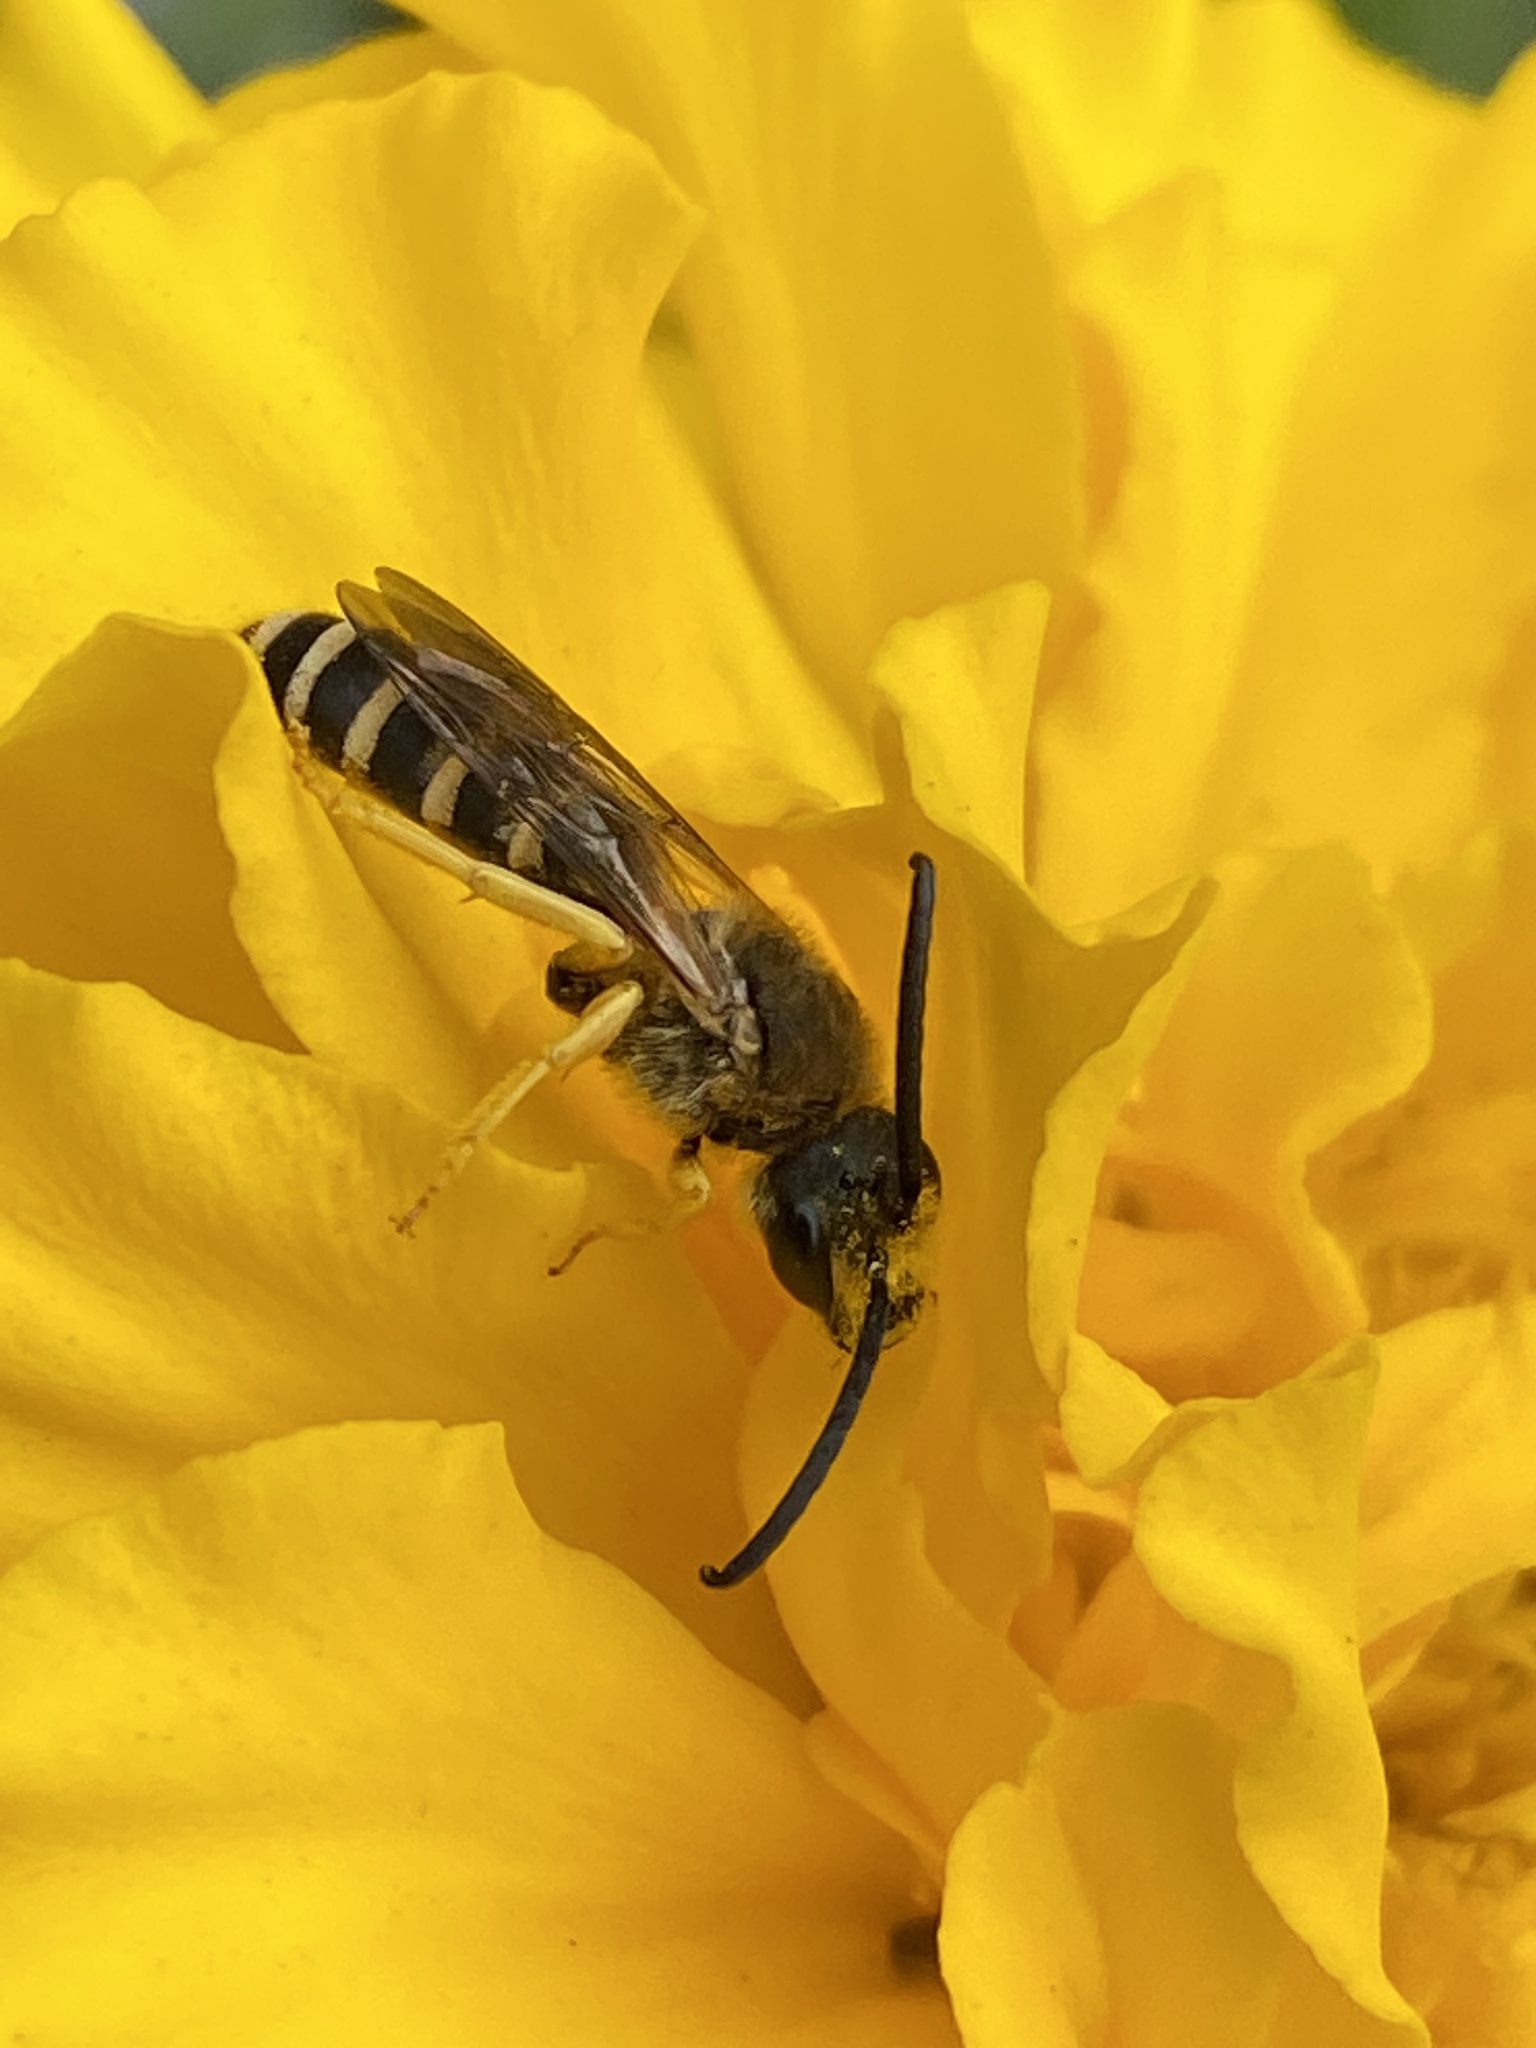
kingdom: Animalia
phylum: Arthropoda
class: Insecta
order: Hymenoptera
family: Halictidae
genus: Halictus
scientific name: Halictus scabiosae
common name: Great banded furrow bee
